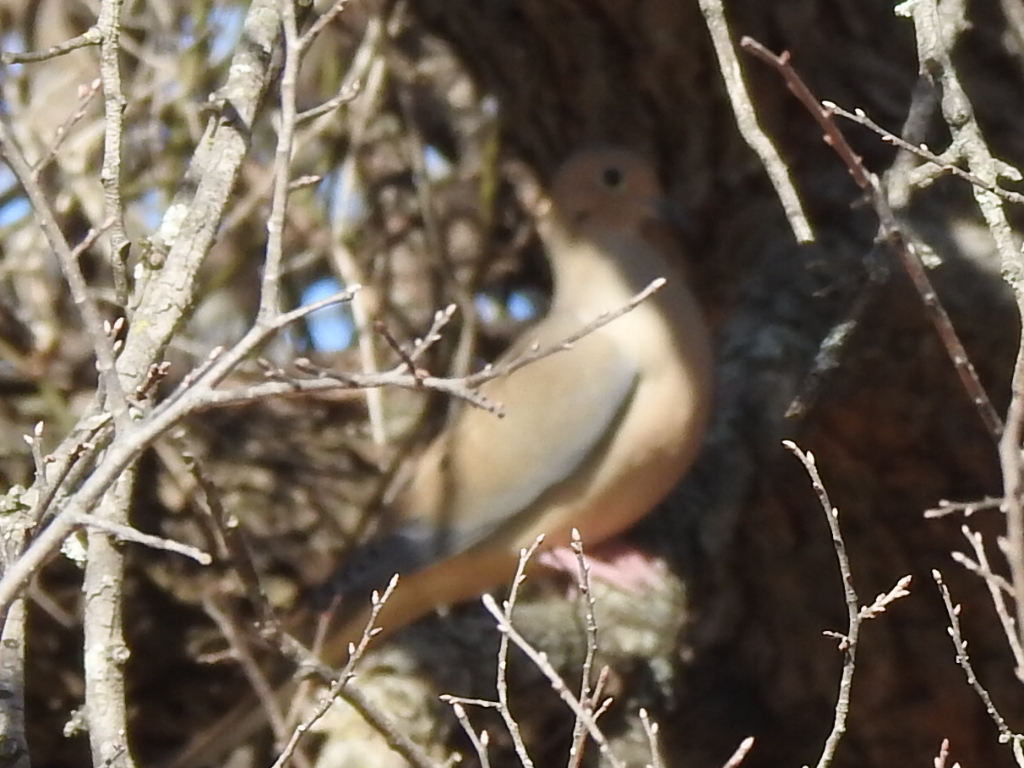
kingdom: Animalia
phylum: Chordata
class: Aves
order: Columbiformes
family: Columbidae
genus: Zenaida
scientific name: Zenaida macroura
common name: Mourning dove
